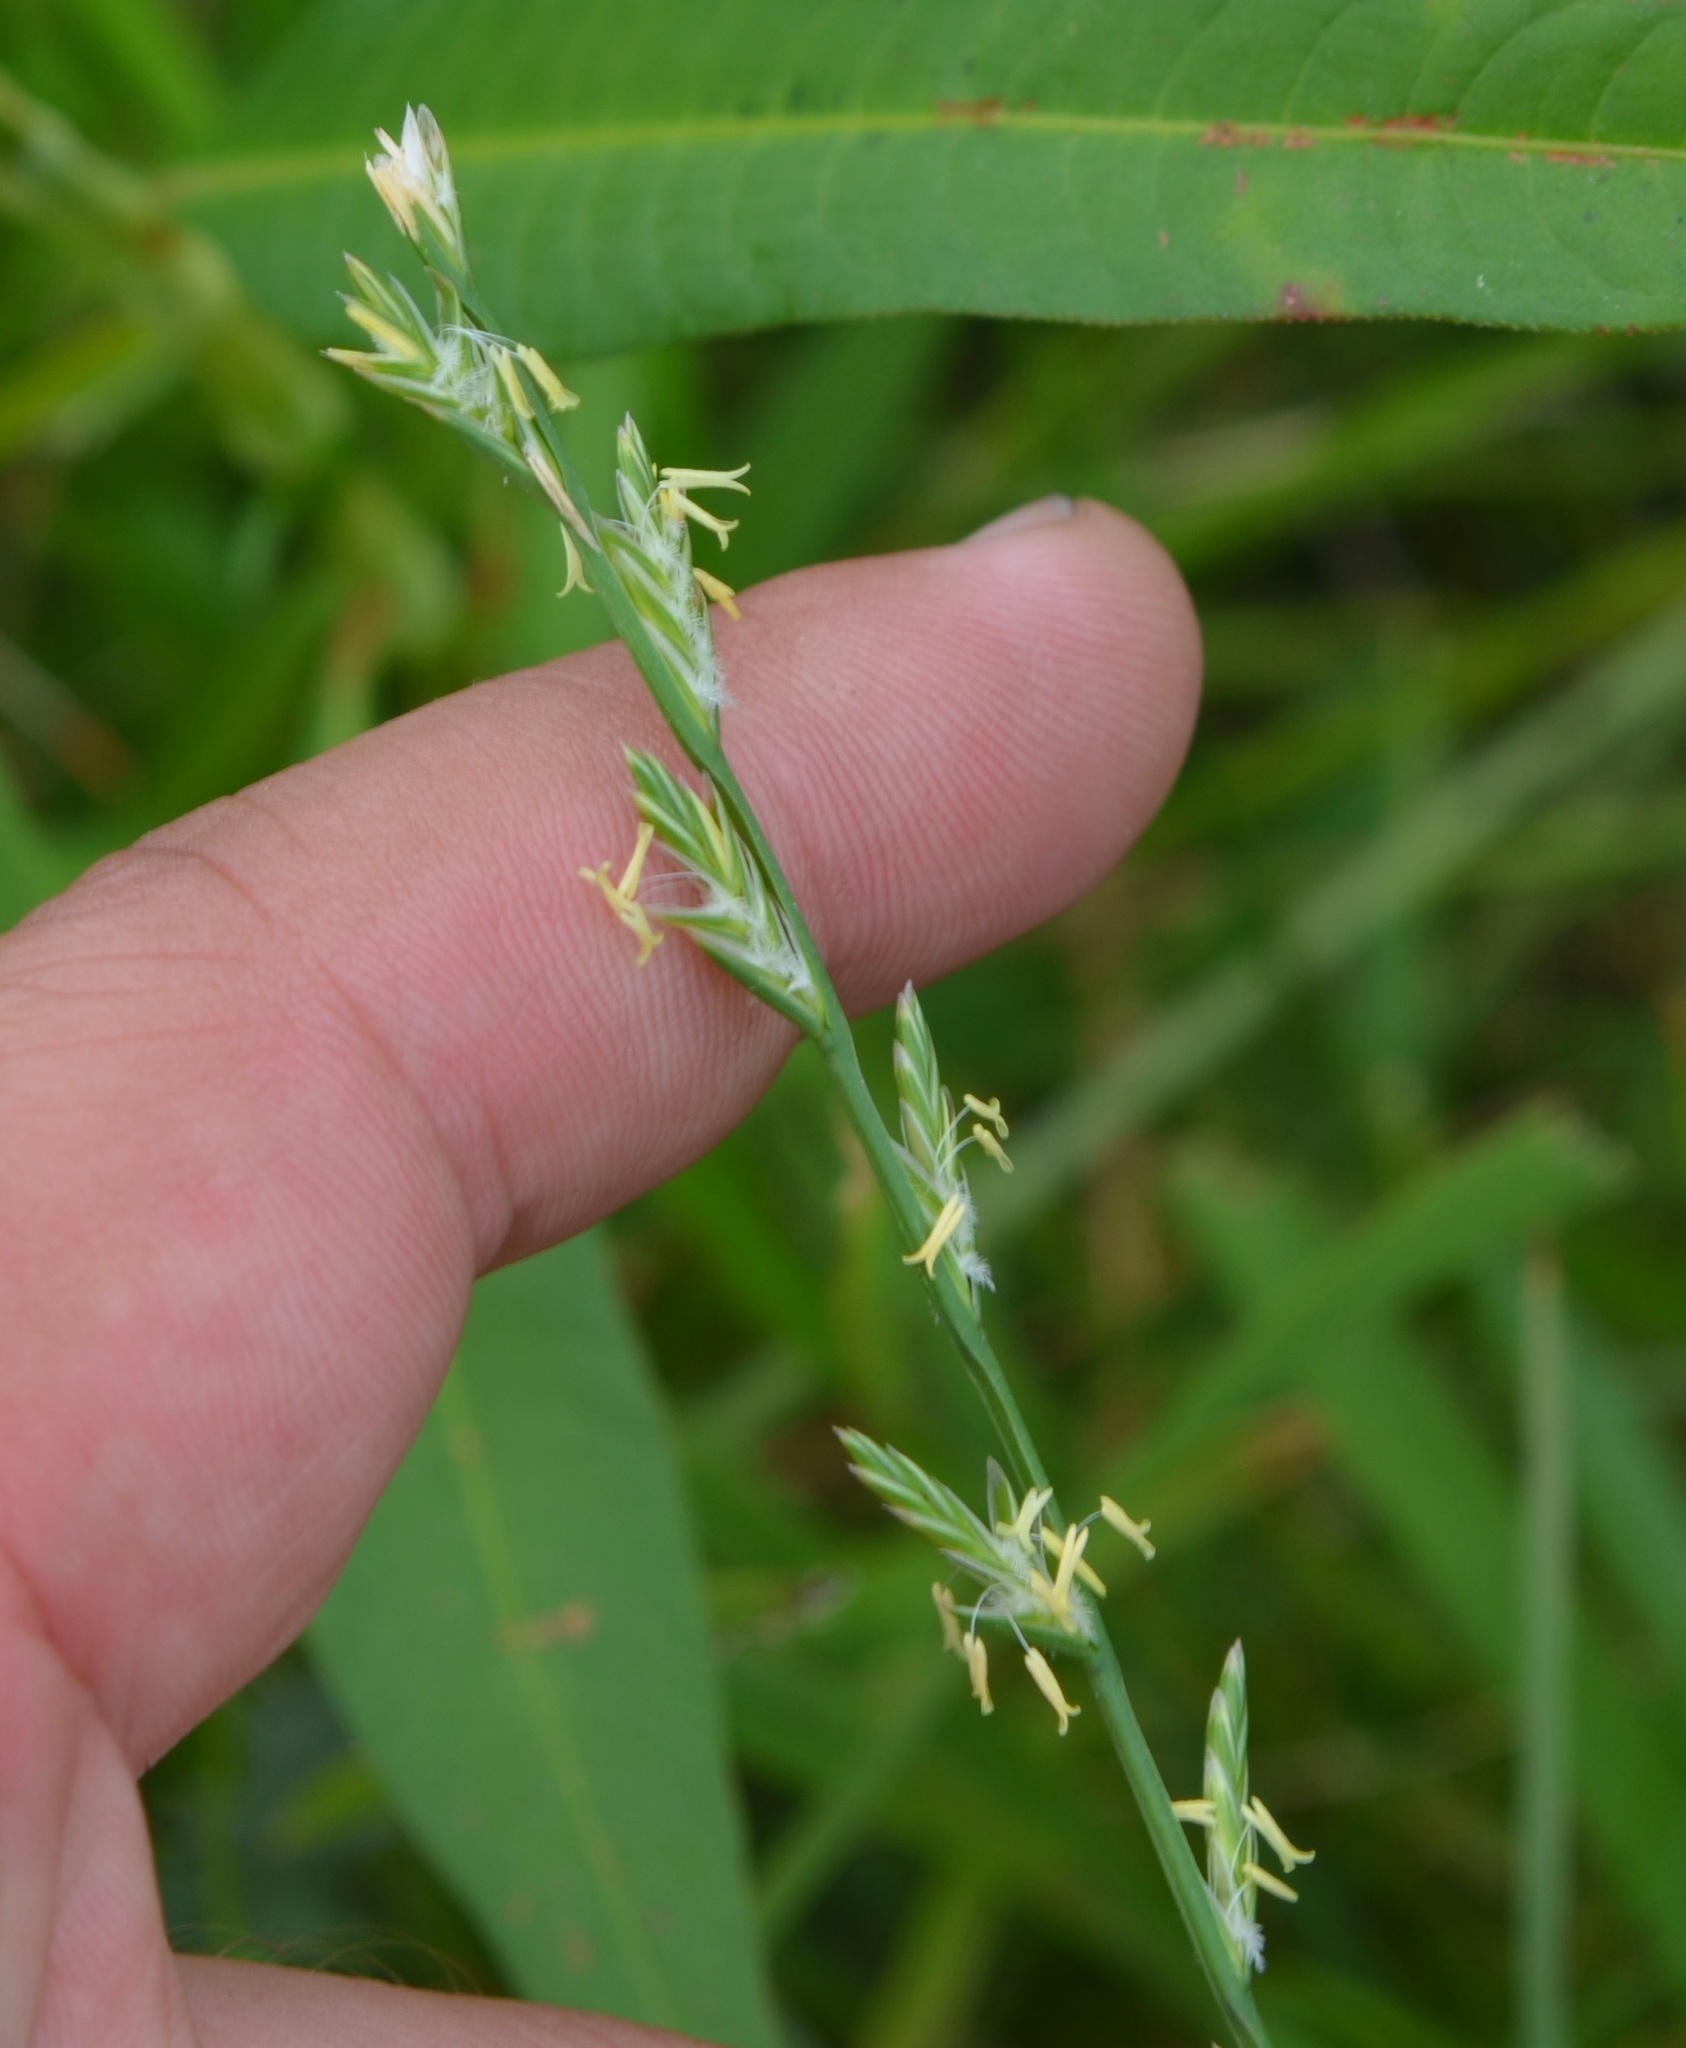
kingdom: Plantae
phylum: Tracheophyta
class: Liliopsida
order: Poales
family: Poaceae
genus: Lolium
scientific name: Lolium multiflorum
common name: Annual ryegrass
